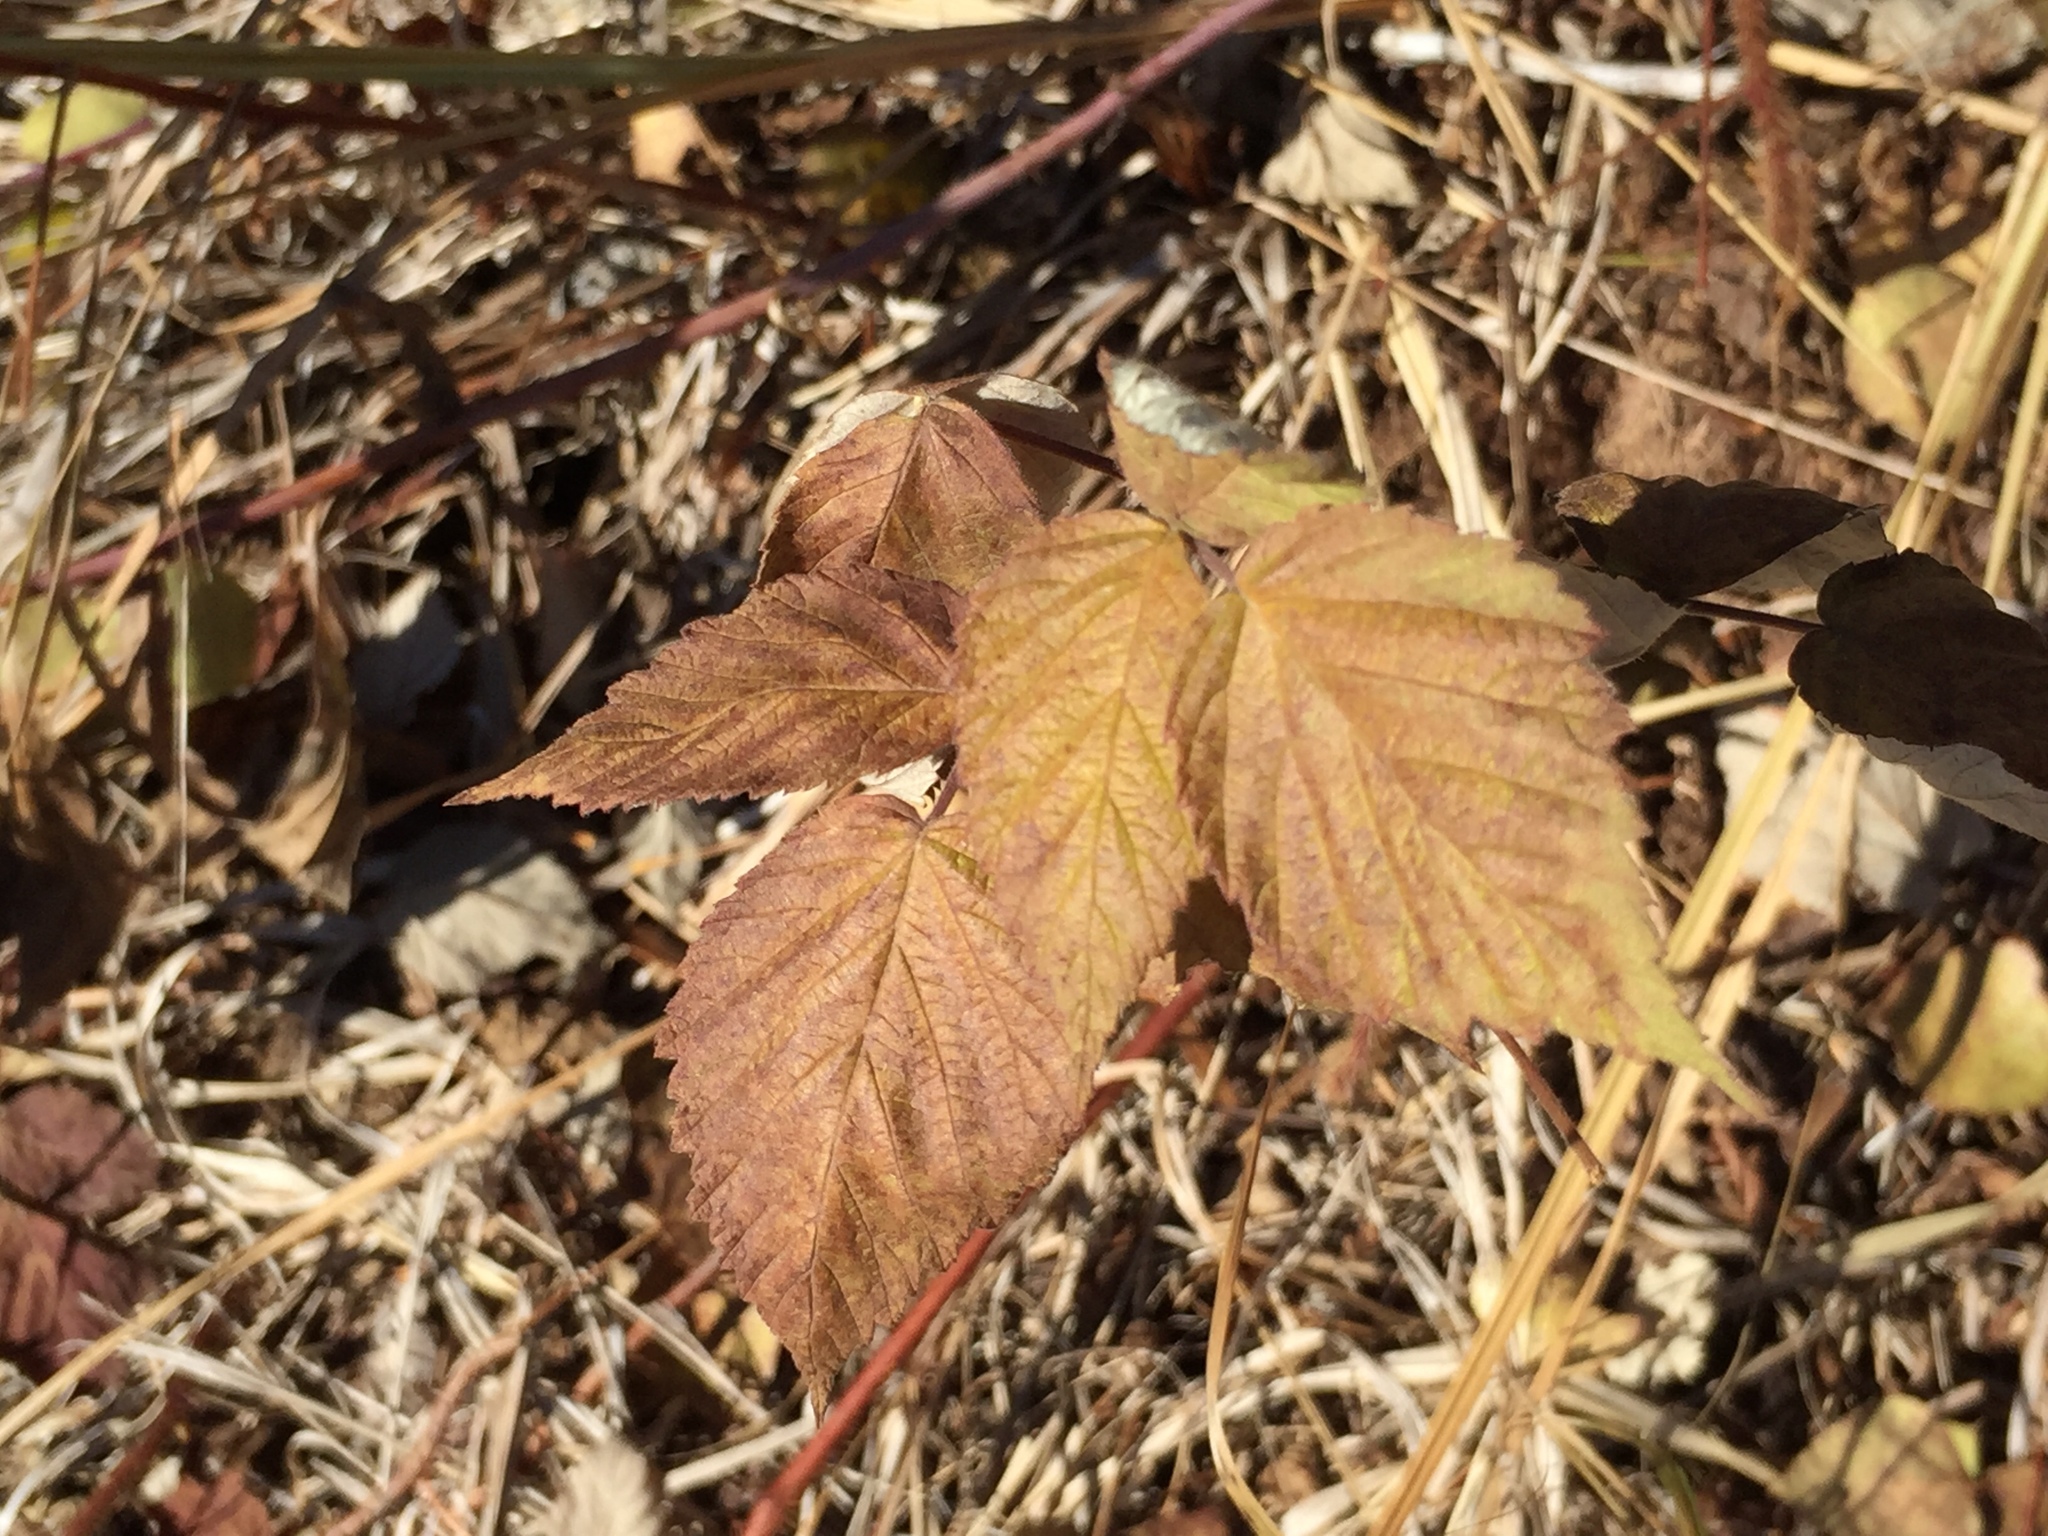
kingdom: Plantae
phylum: Tracheophyta
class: Magnoliopsida
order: Rosales
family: Rosaceae
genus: Rubus
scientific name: Rubus idaeus
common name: Raspberry
